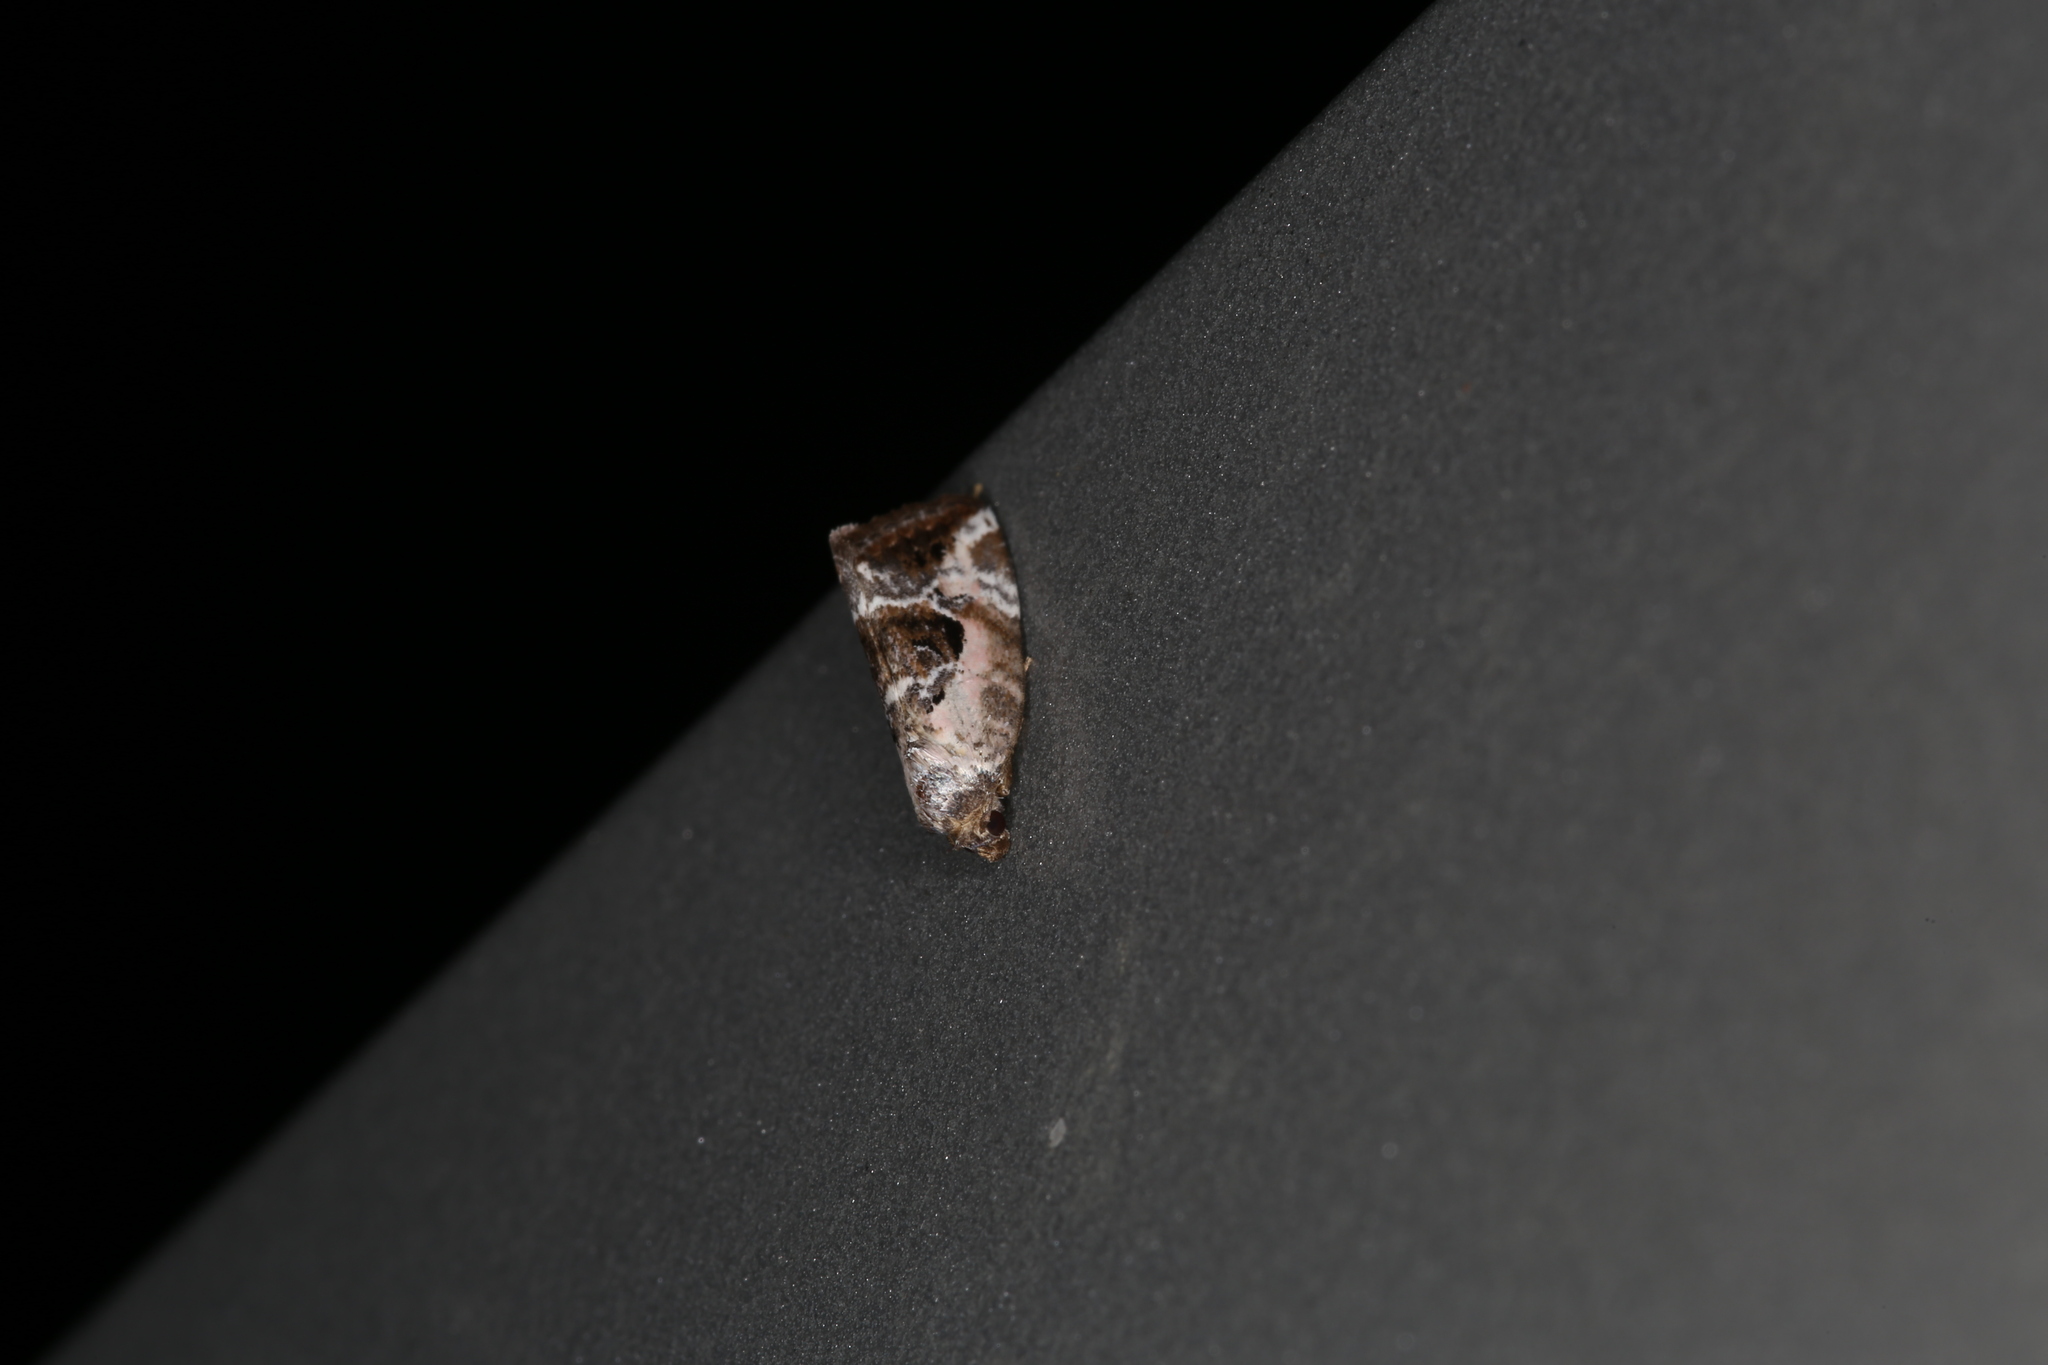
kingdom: Animalia
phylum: Arthropoda
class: Insecta
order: Lepidoptera
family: Noctuidae
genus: Elaphria
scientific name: Elaphria venustula
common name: Rosy marbled
